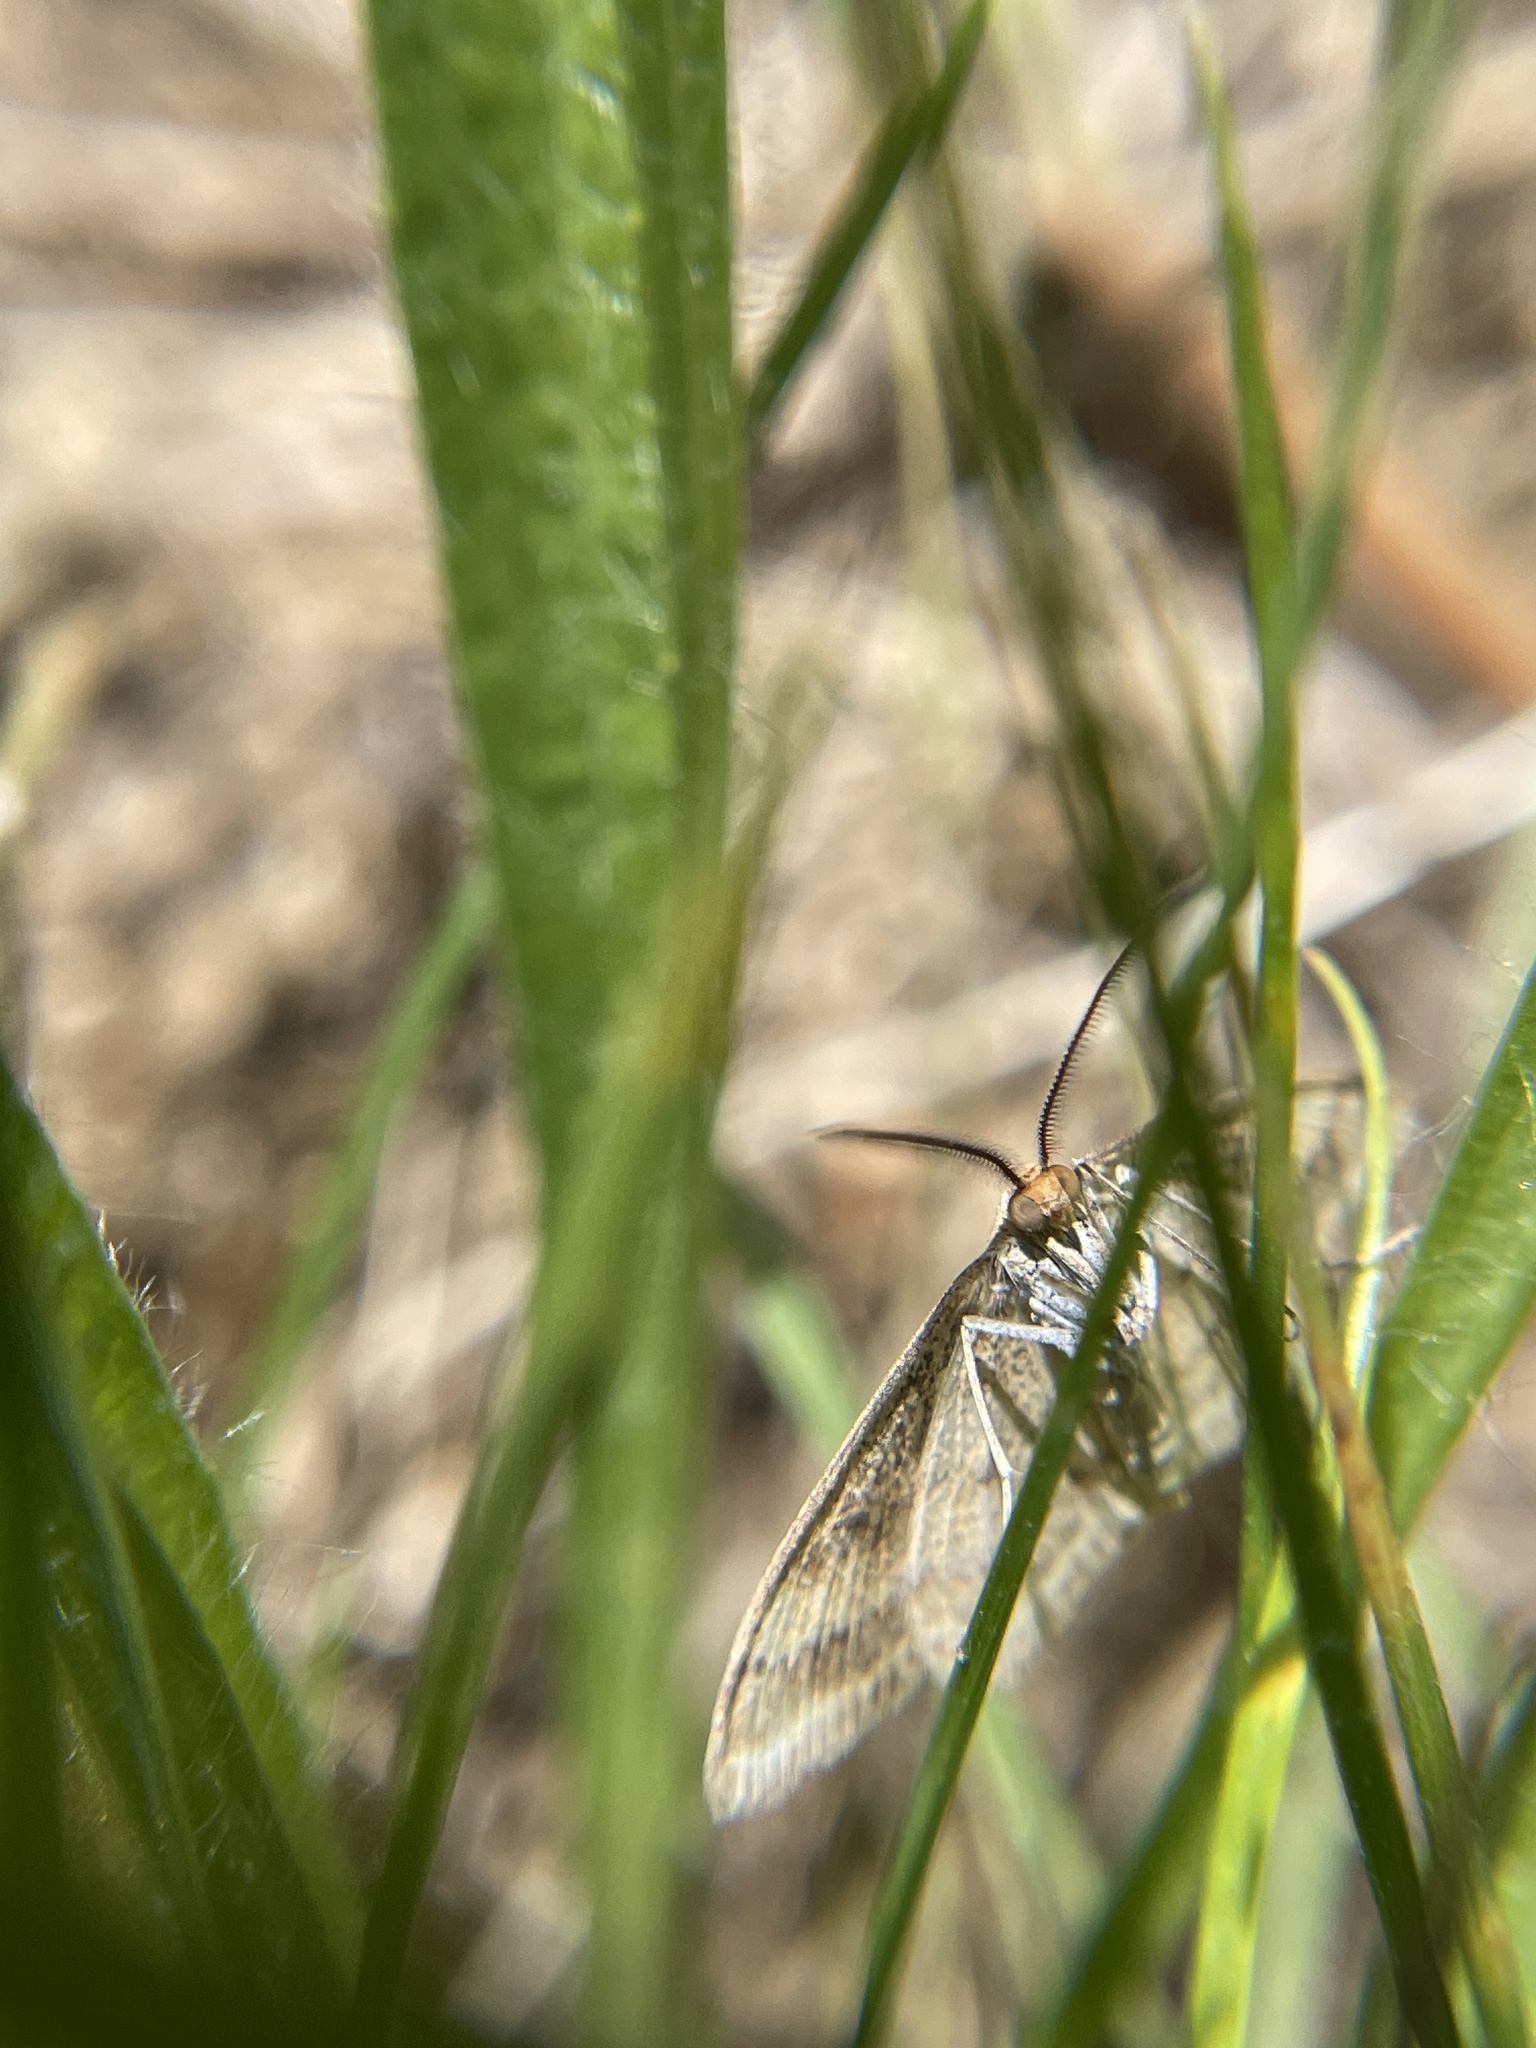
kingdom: Animalia
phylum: Arthropoda
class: Insecta
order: Lepidoptera
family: Geometridae
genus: Scopula
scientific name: Scopula rubraria
